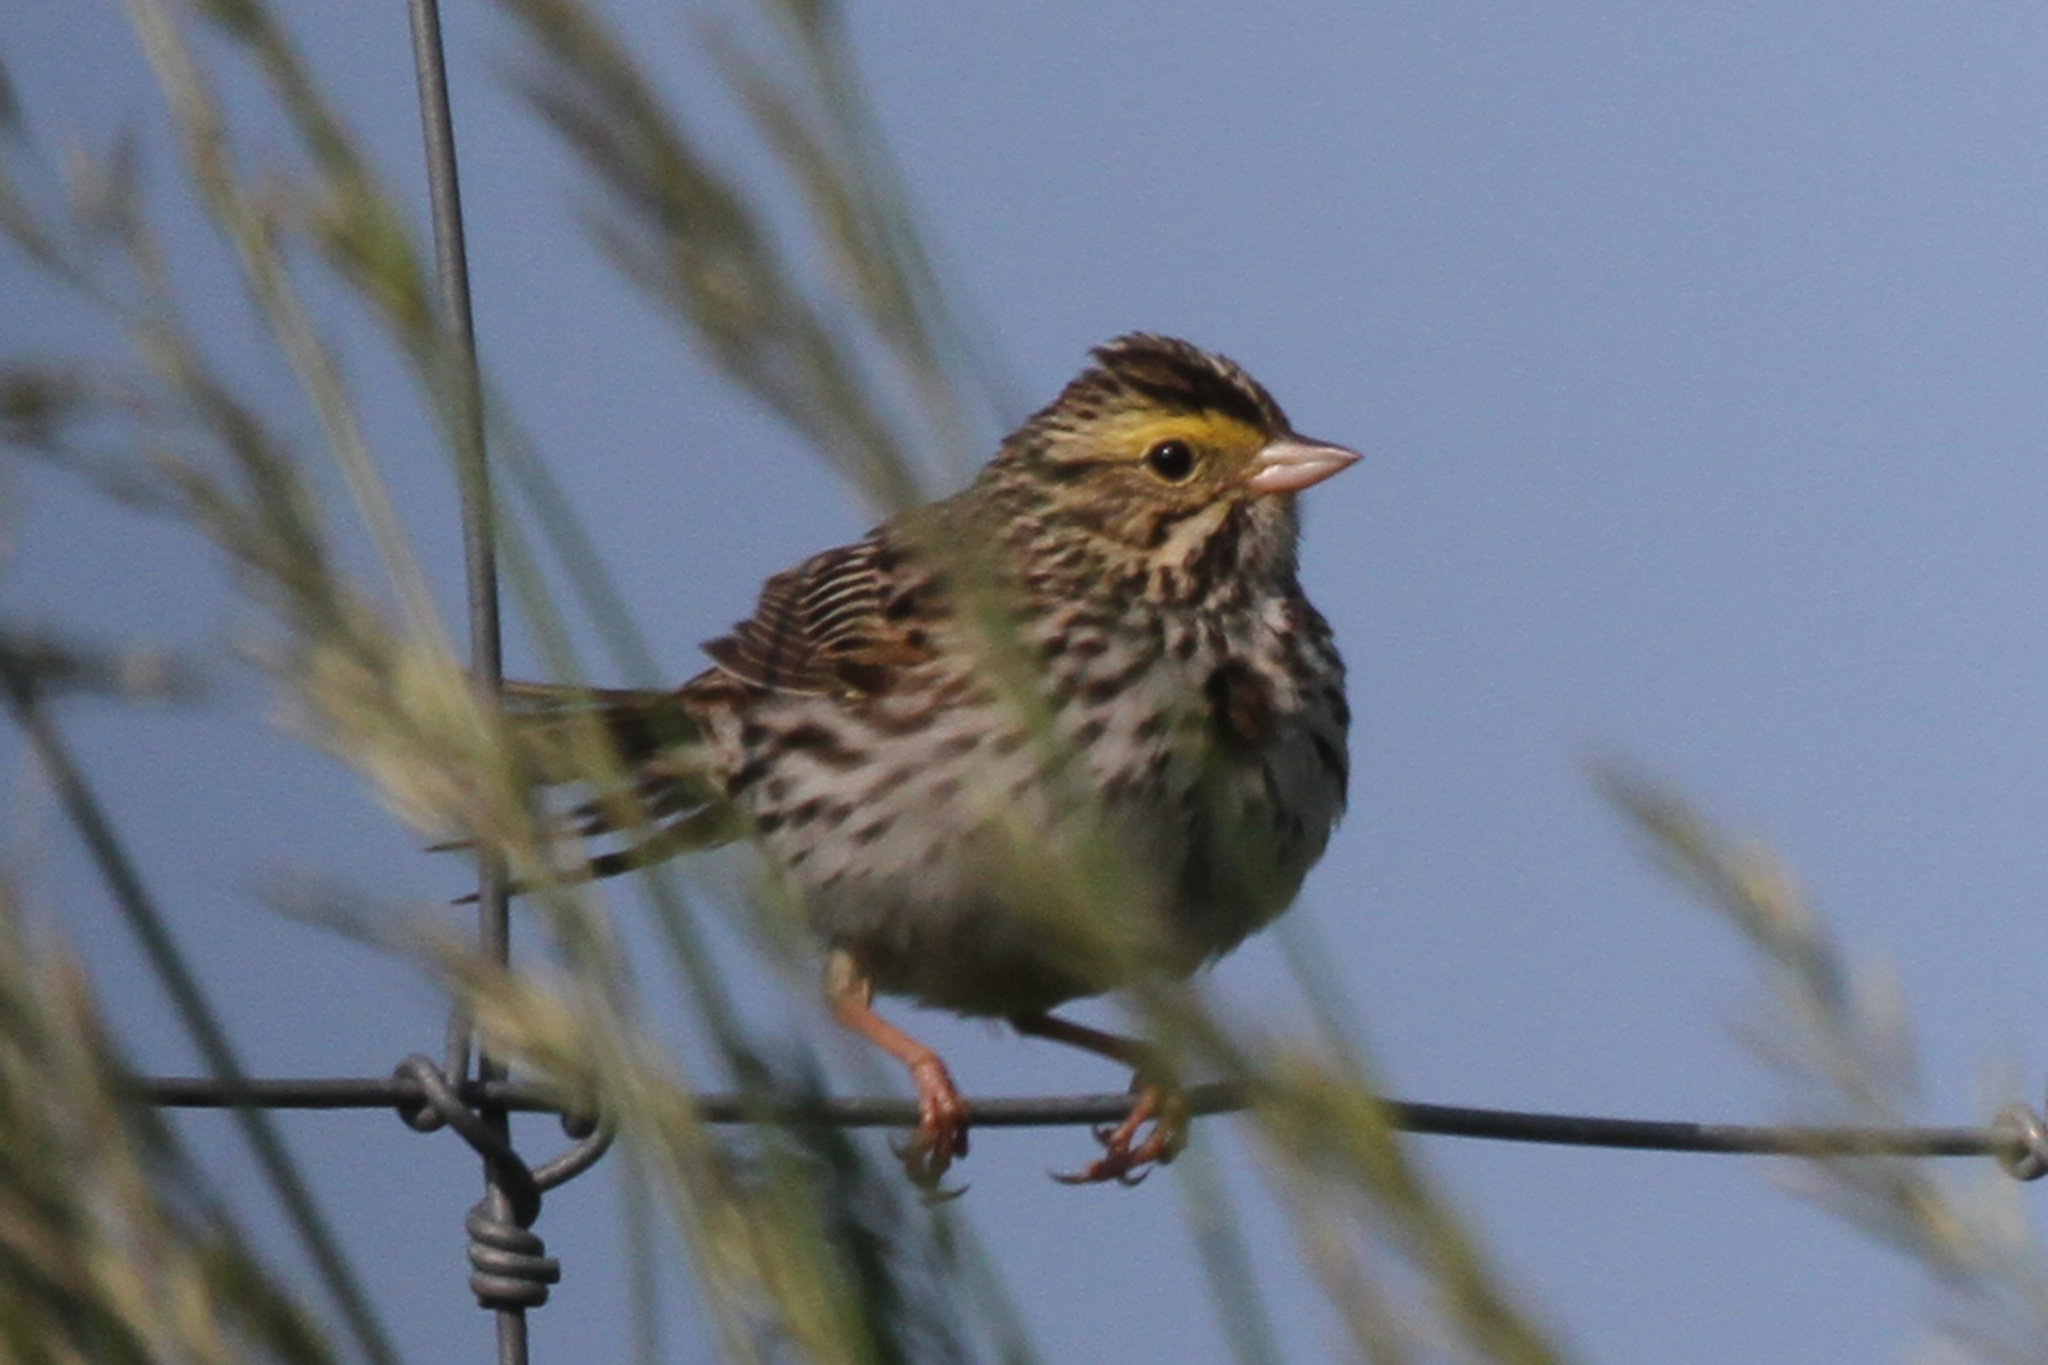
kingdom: Animalia
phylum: Chordata
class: Aves
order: Passeriformes
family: Passerellidae
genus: Passerculus
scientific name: Passerculus sandwichensis
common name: Savannah sparrow
